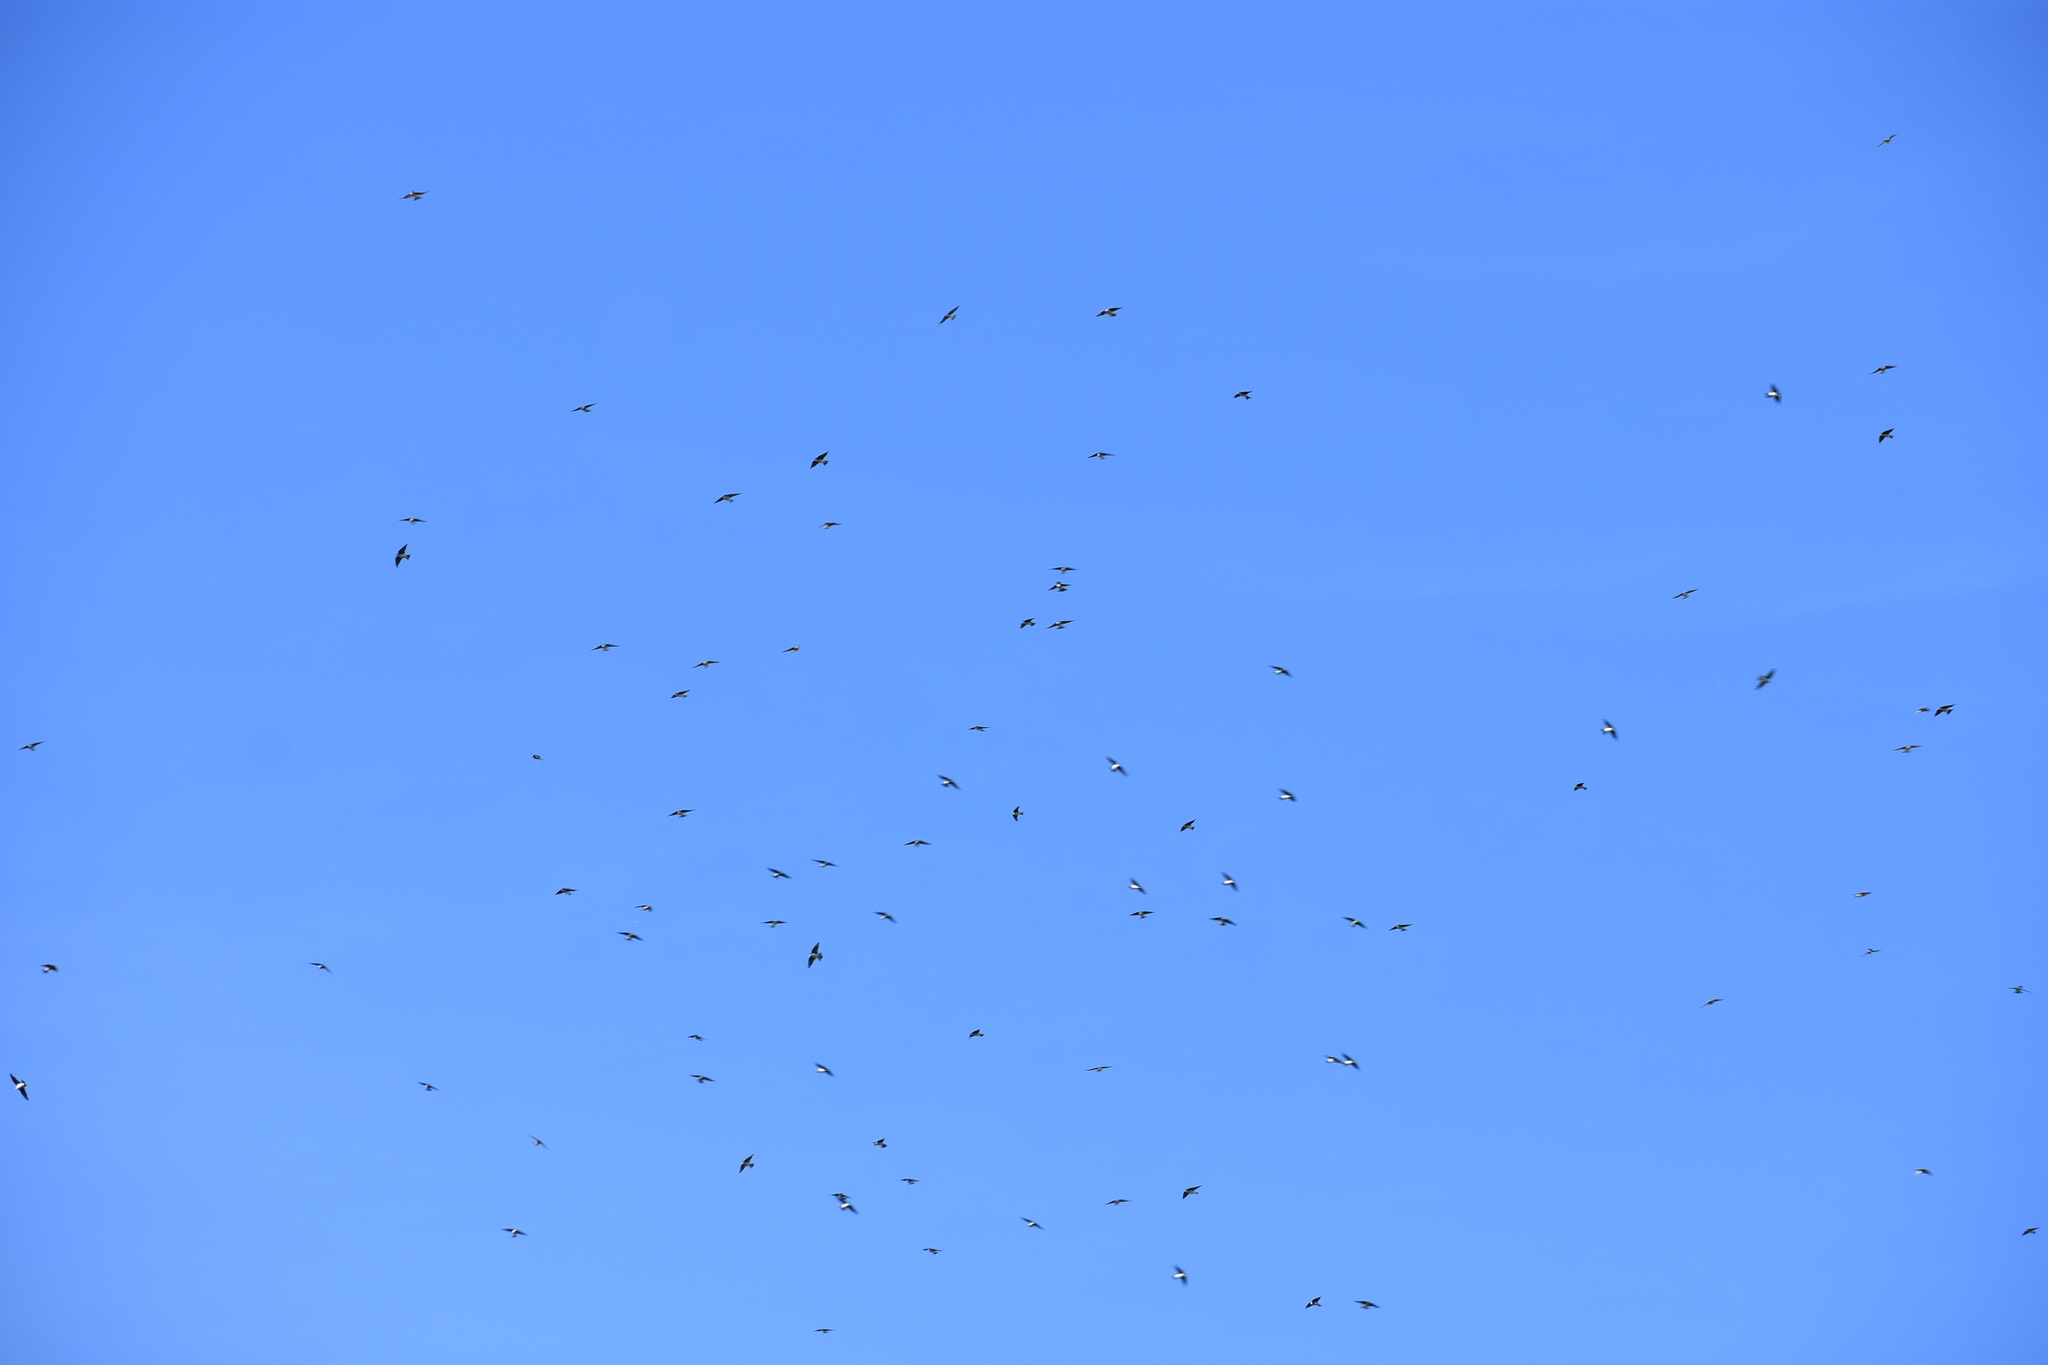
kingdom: Animalia
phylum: Chordata
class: Aves
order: Passeriformes
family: Hirundinidae
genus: Tachycineta
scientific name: Tachycineta bicolor
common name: Tree swallow
